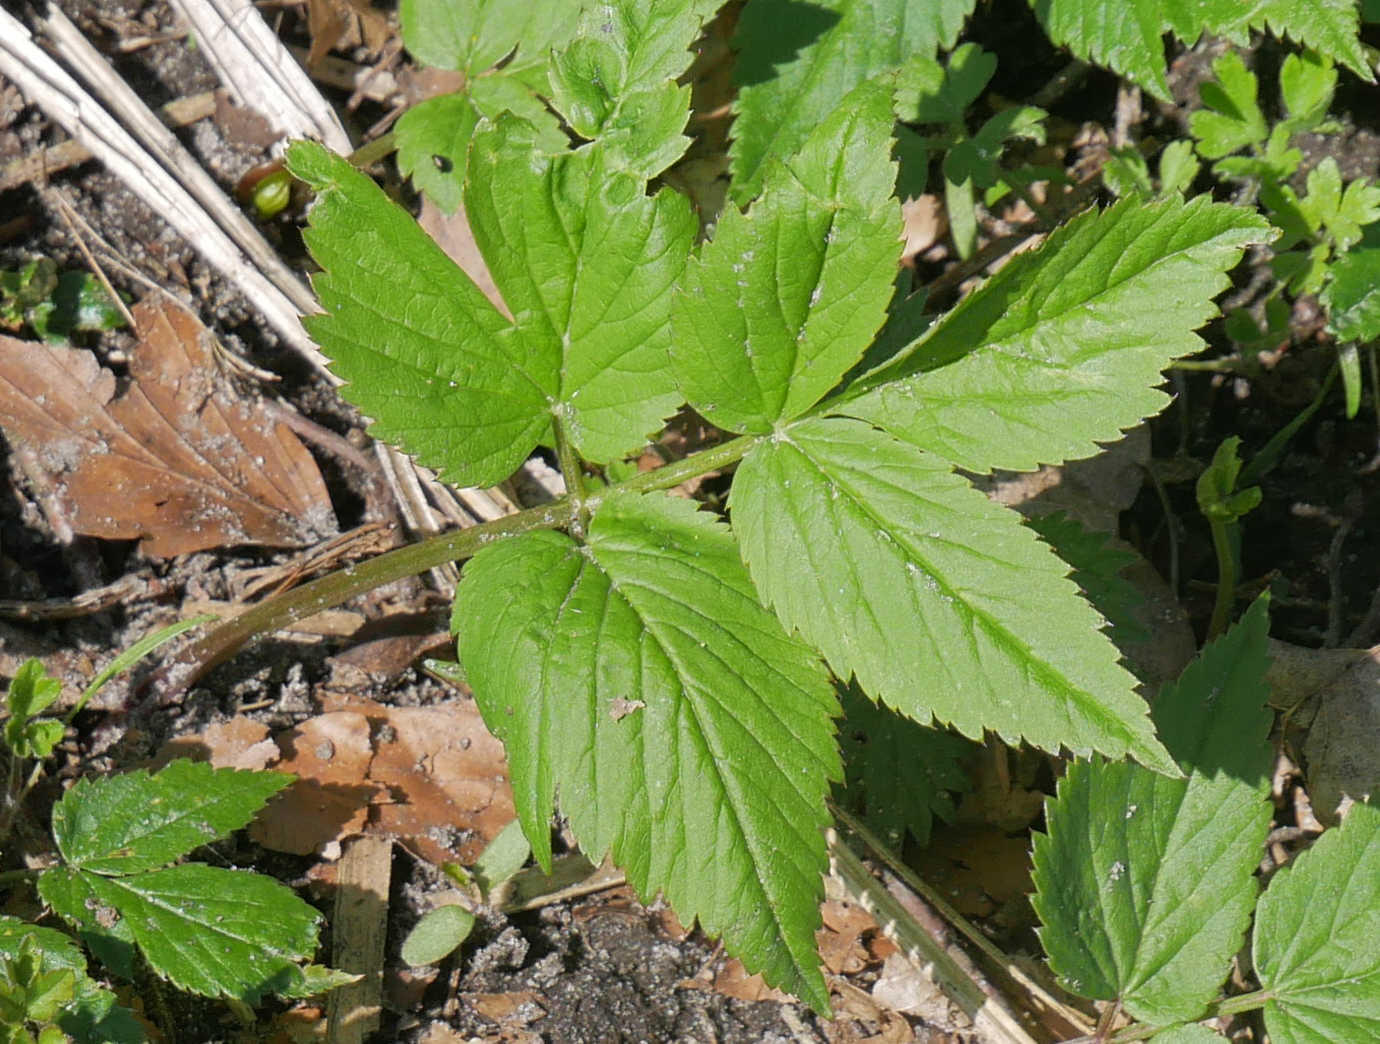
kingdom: Plantae
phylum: Tracheophyta
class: Magnoliopsida
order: Apiales
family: Apiaceae
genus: Aegopodium
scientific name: Aegopodium podagraria
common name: Ground-elder
